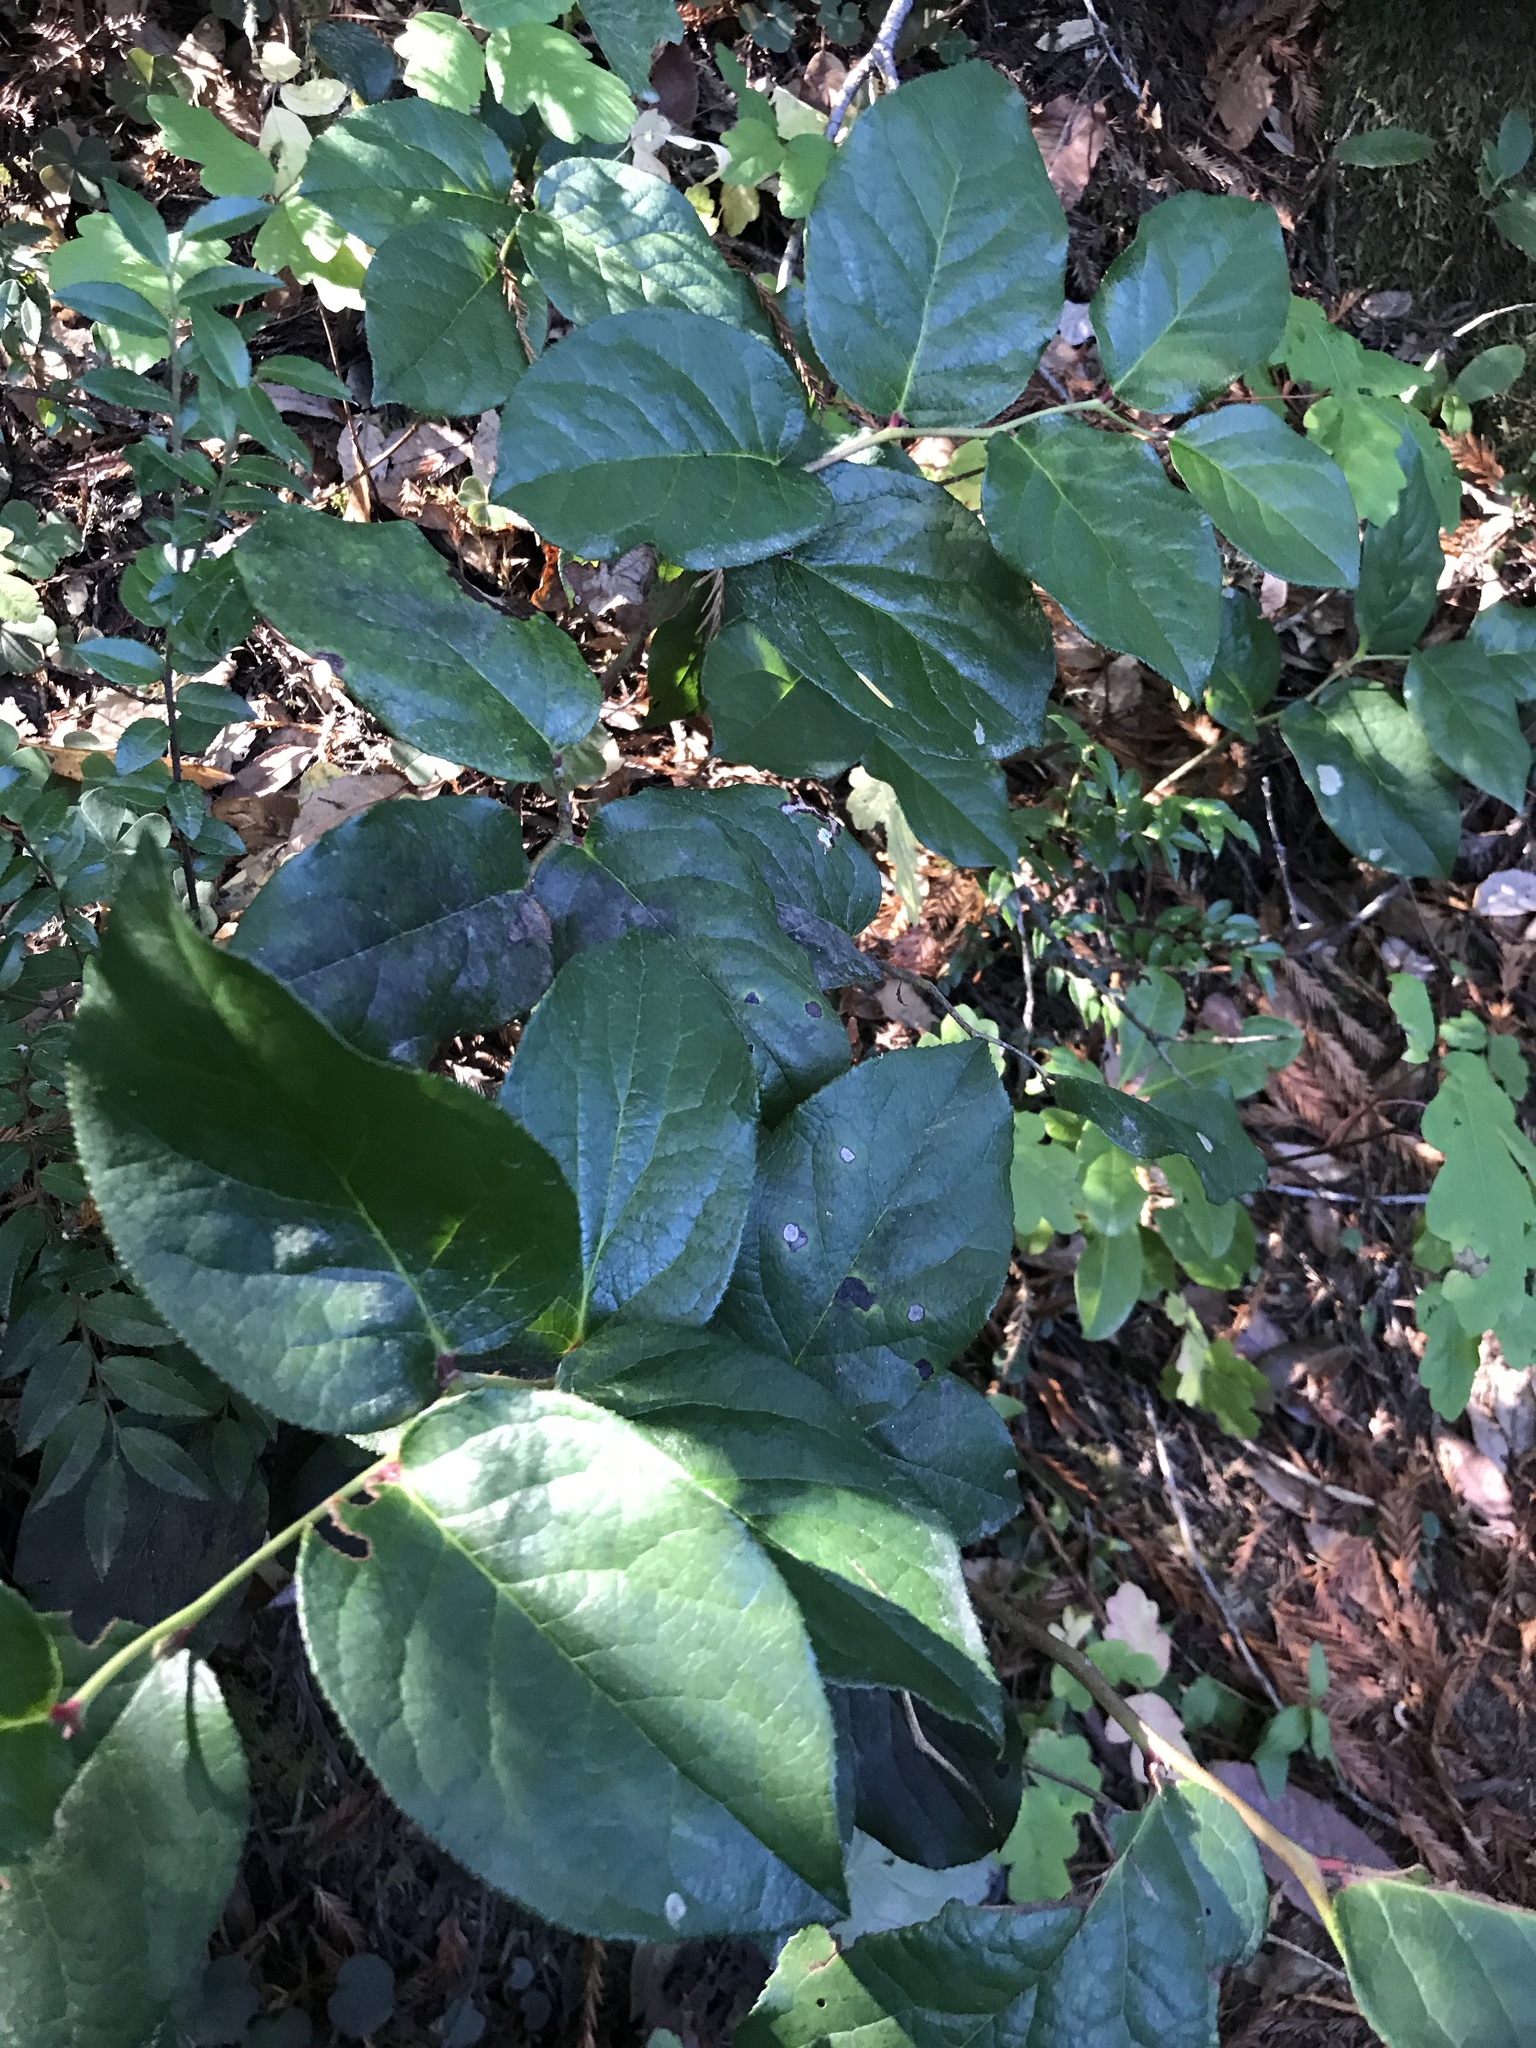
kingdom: Plantae
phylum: Tracheophyta
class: Magnoliopsida
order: Ericales
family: Ericaceae
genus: Gaultheria
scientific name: Gaultheria shallon
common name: Shallon
